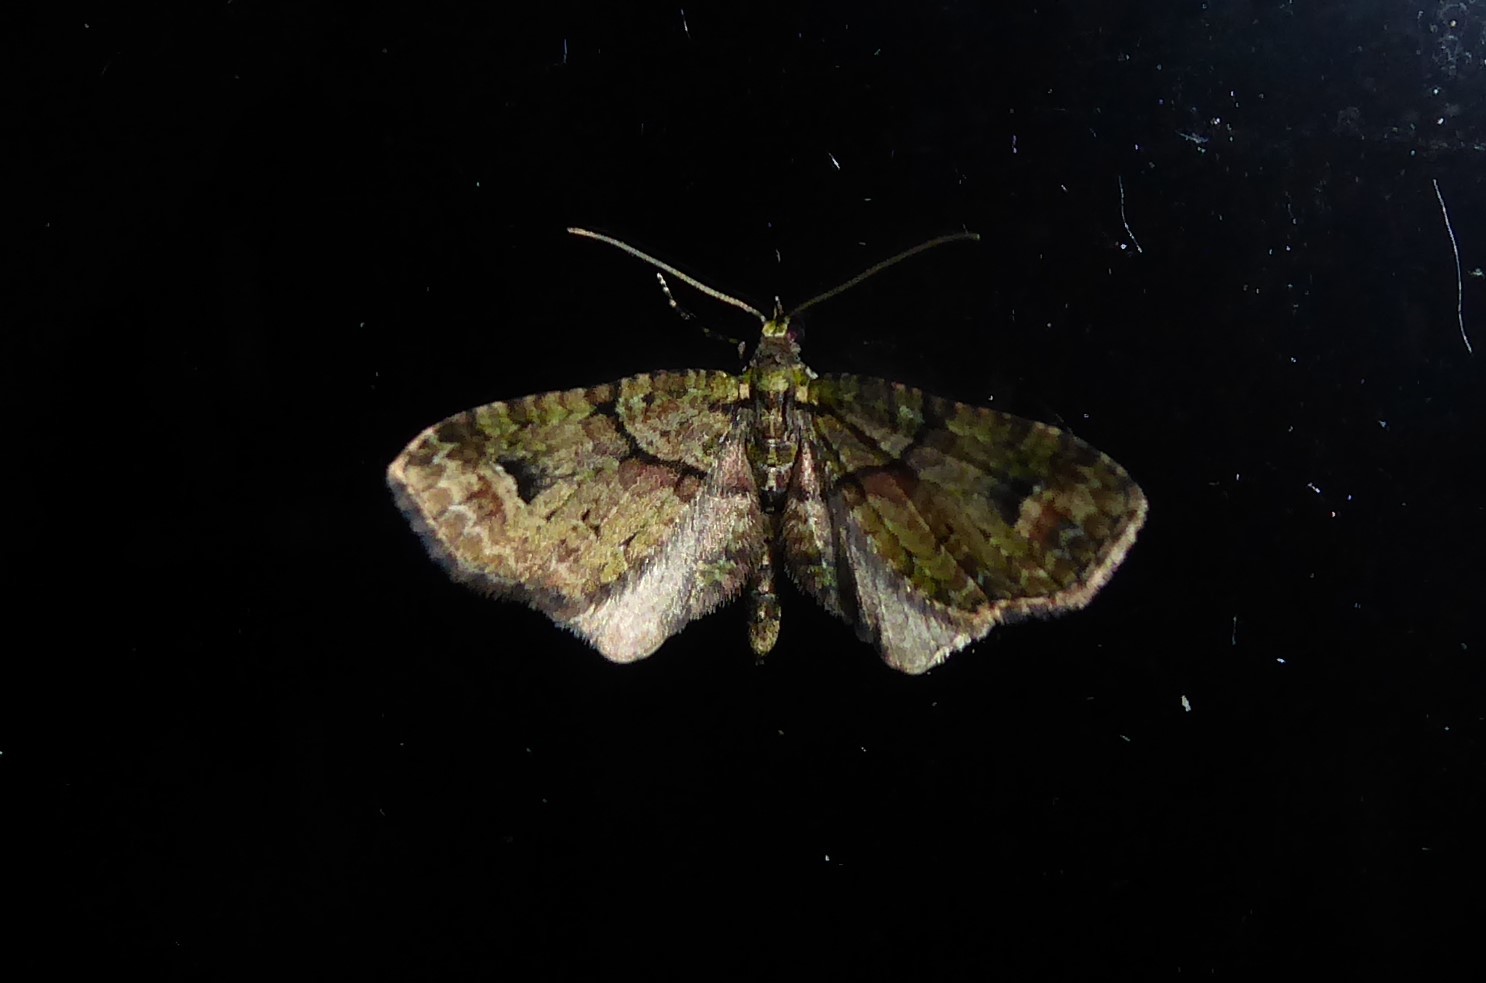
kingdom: Animalia
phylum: Arthropoda
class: Insecta
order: Lepidoptera
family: Geometridae
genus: Idaea
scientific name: Idaea mutanda
